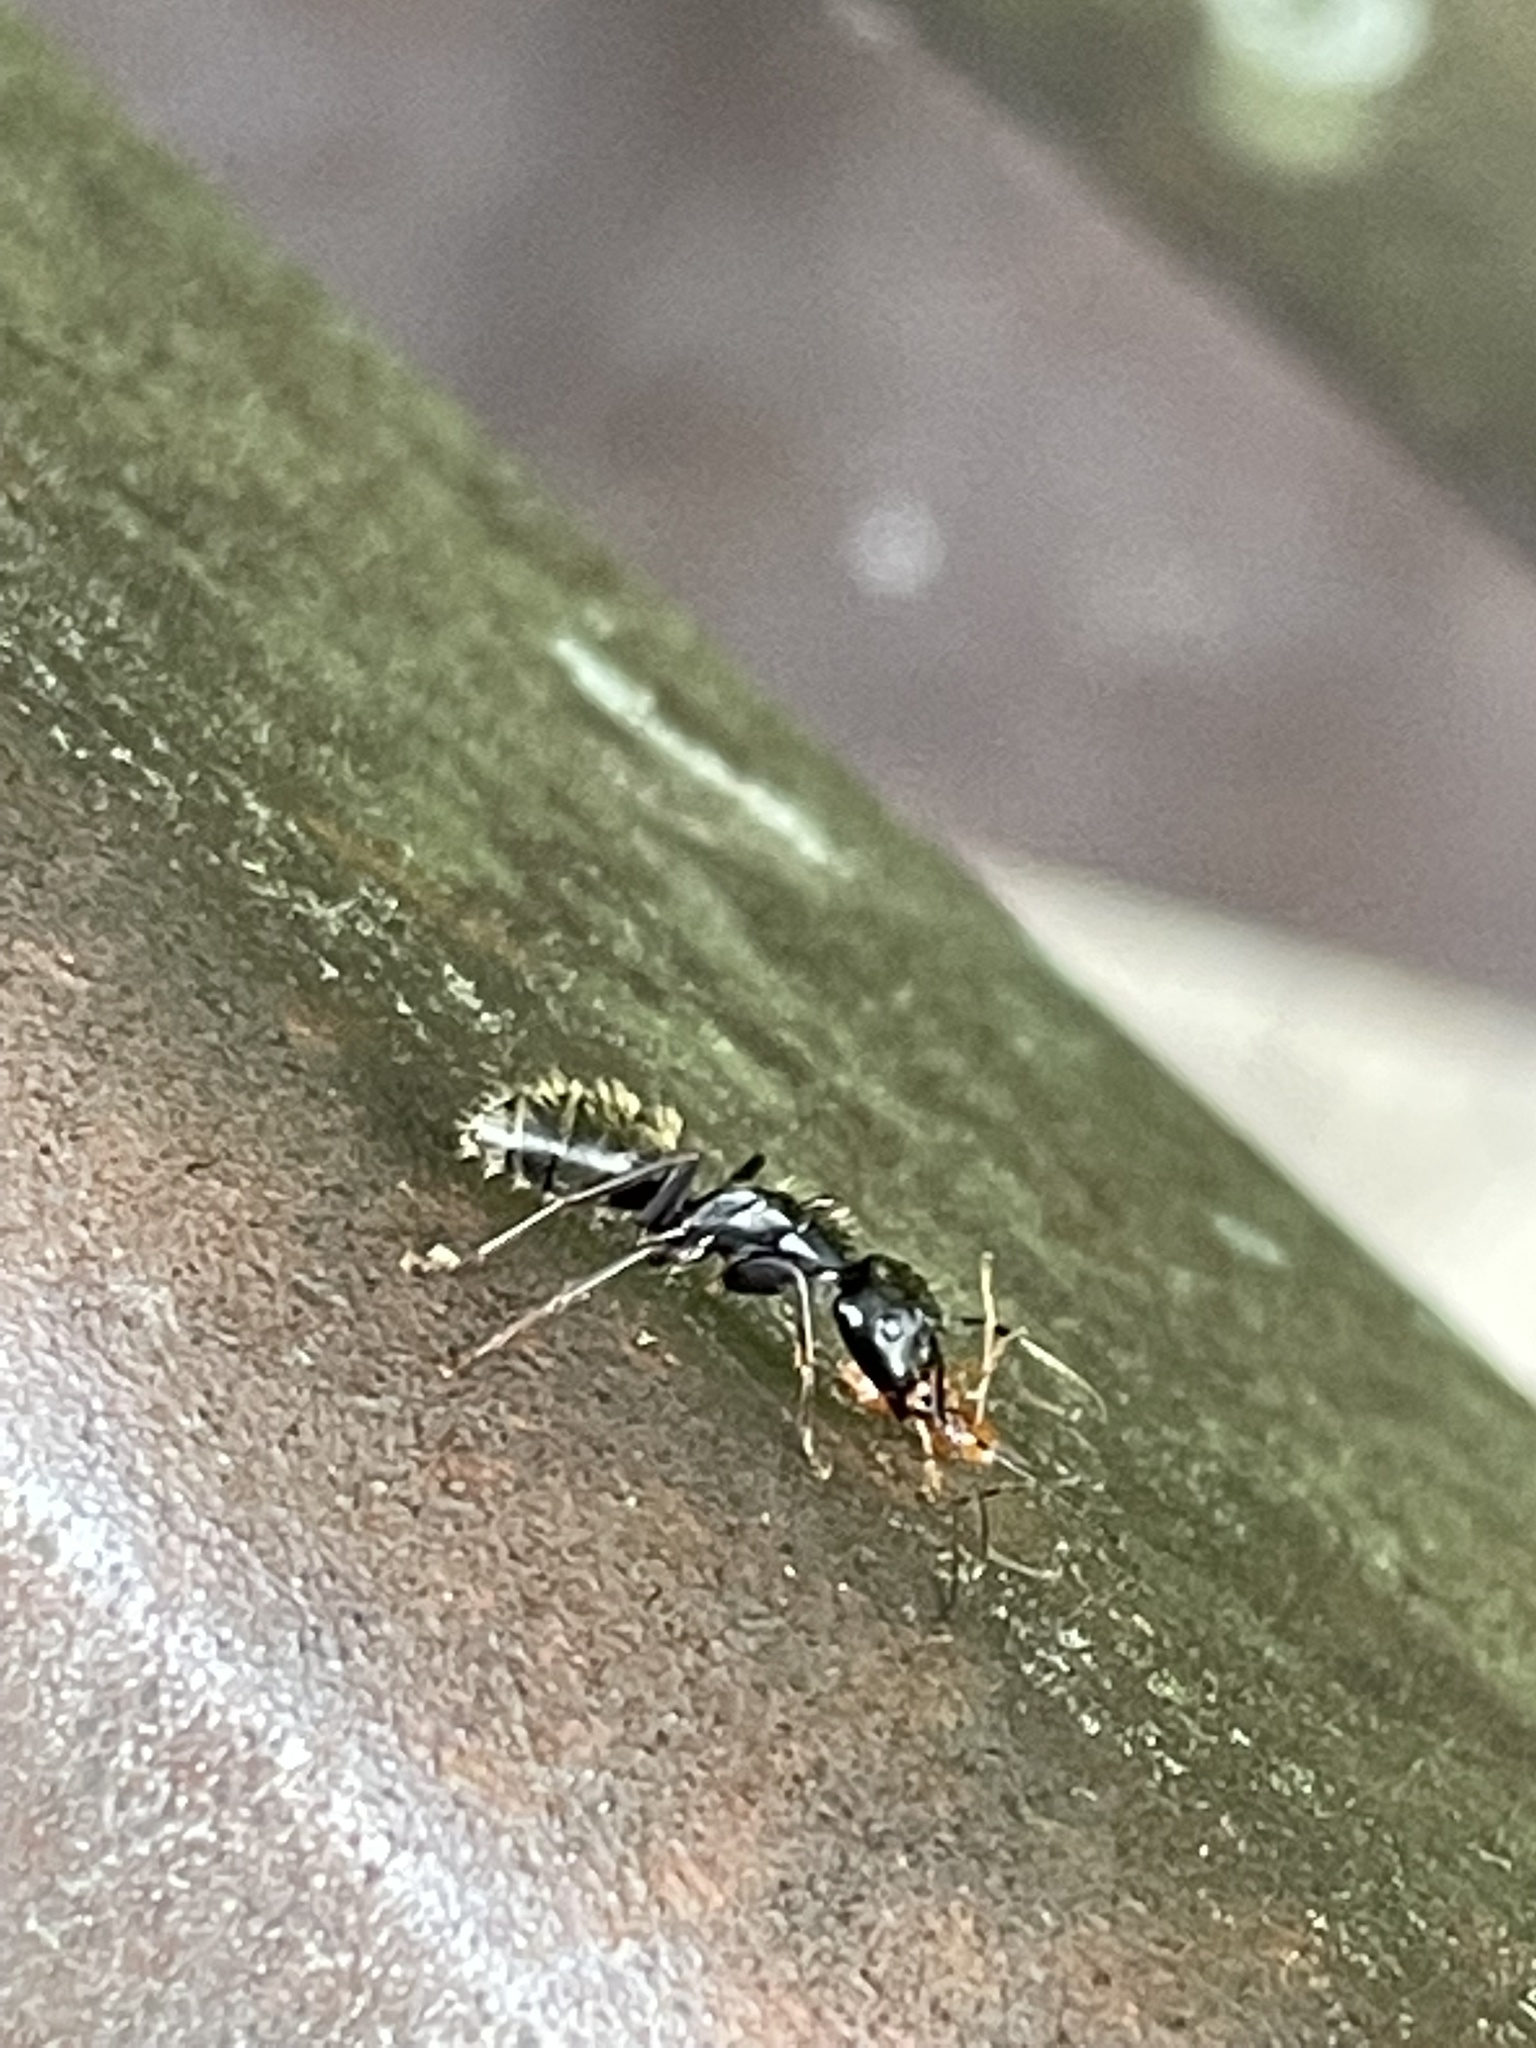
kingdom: Animalia
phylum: Arthropoda
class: Insecta
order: Hymenoptera
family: Formicidae
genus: Camponotus
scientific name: Camponotus pennsylvanicus
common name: Black carpenter ant
